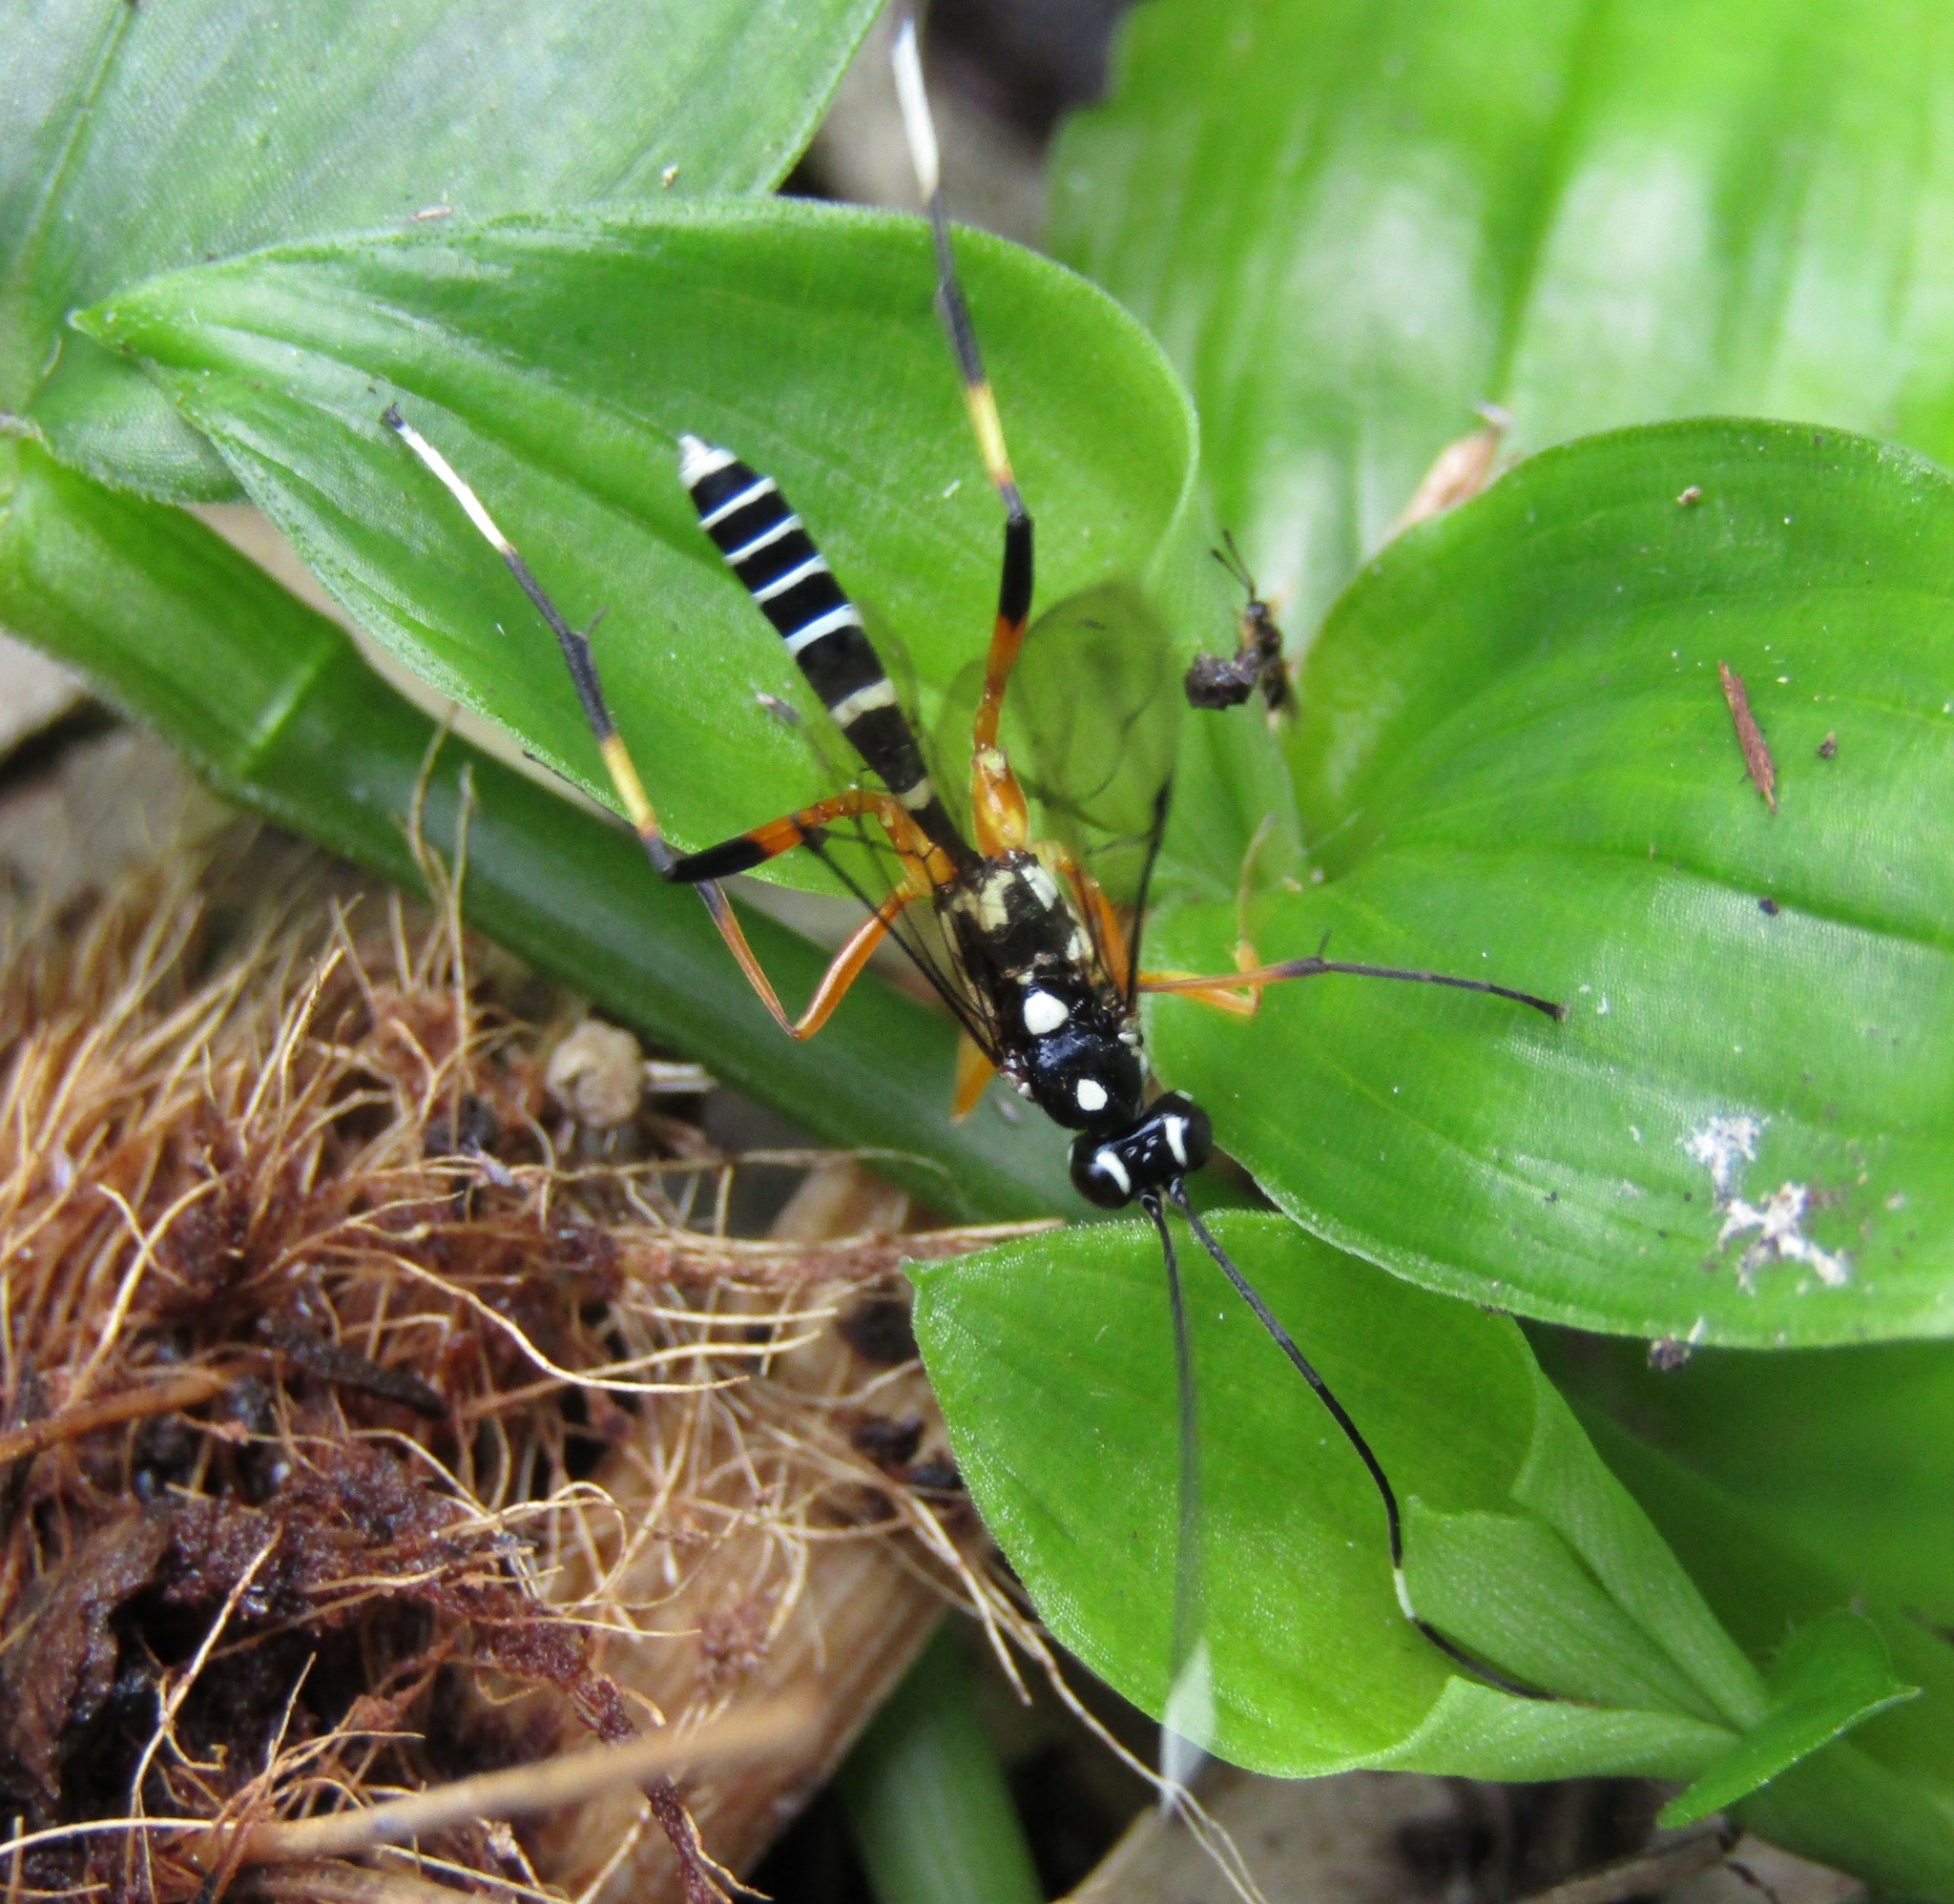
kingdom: Animalia
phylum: Arthropoda
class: Insecta
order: Hymenoptera
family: Ichneumonidae
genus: Xanthocryptus
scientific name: Xanthocryptus novozealandicus
